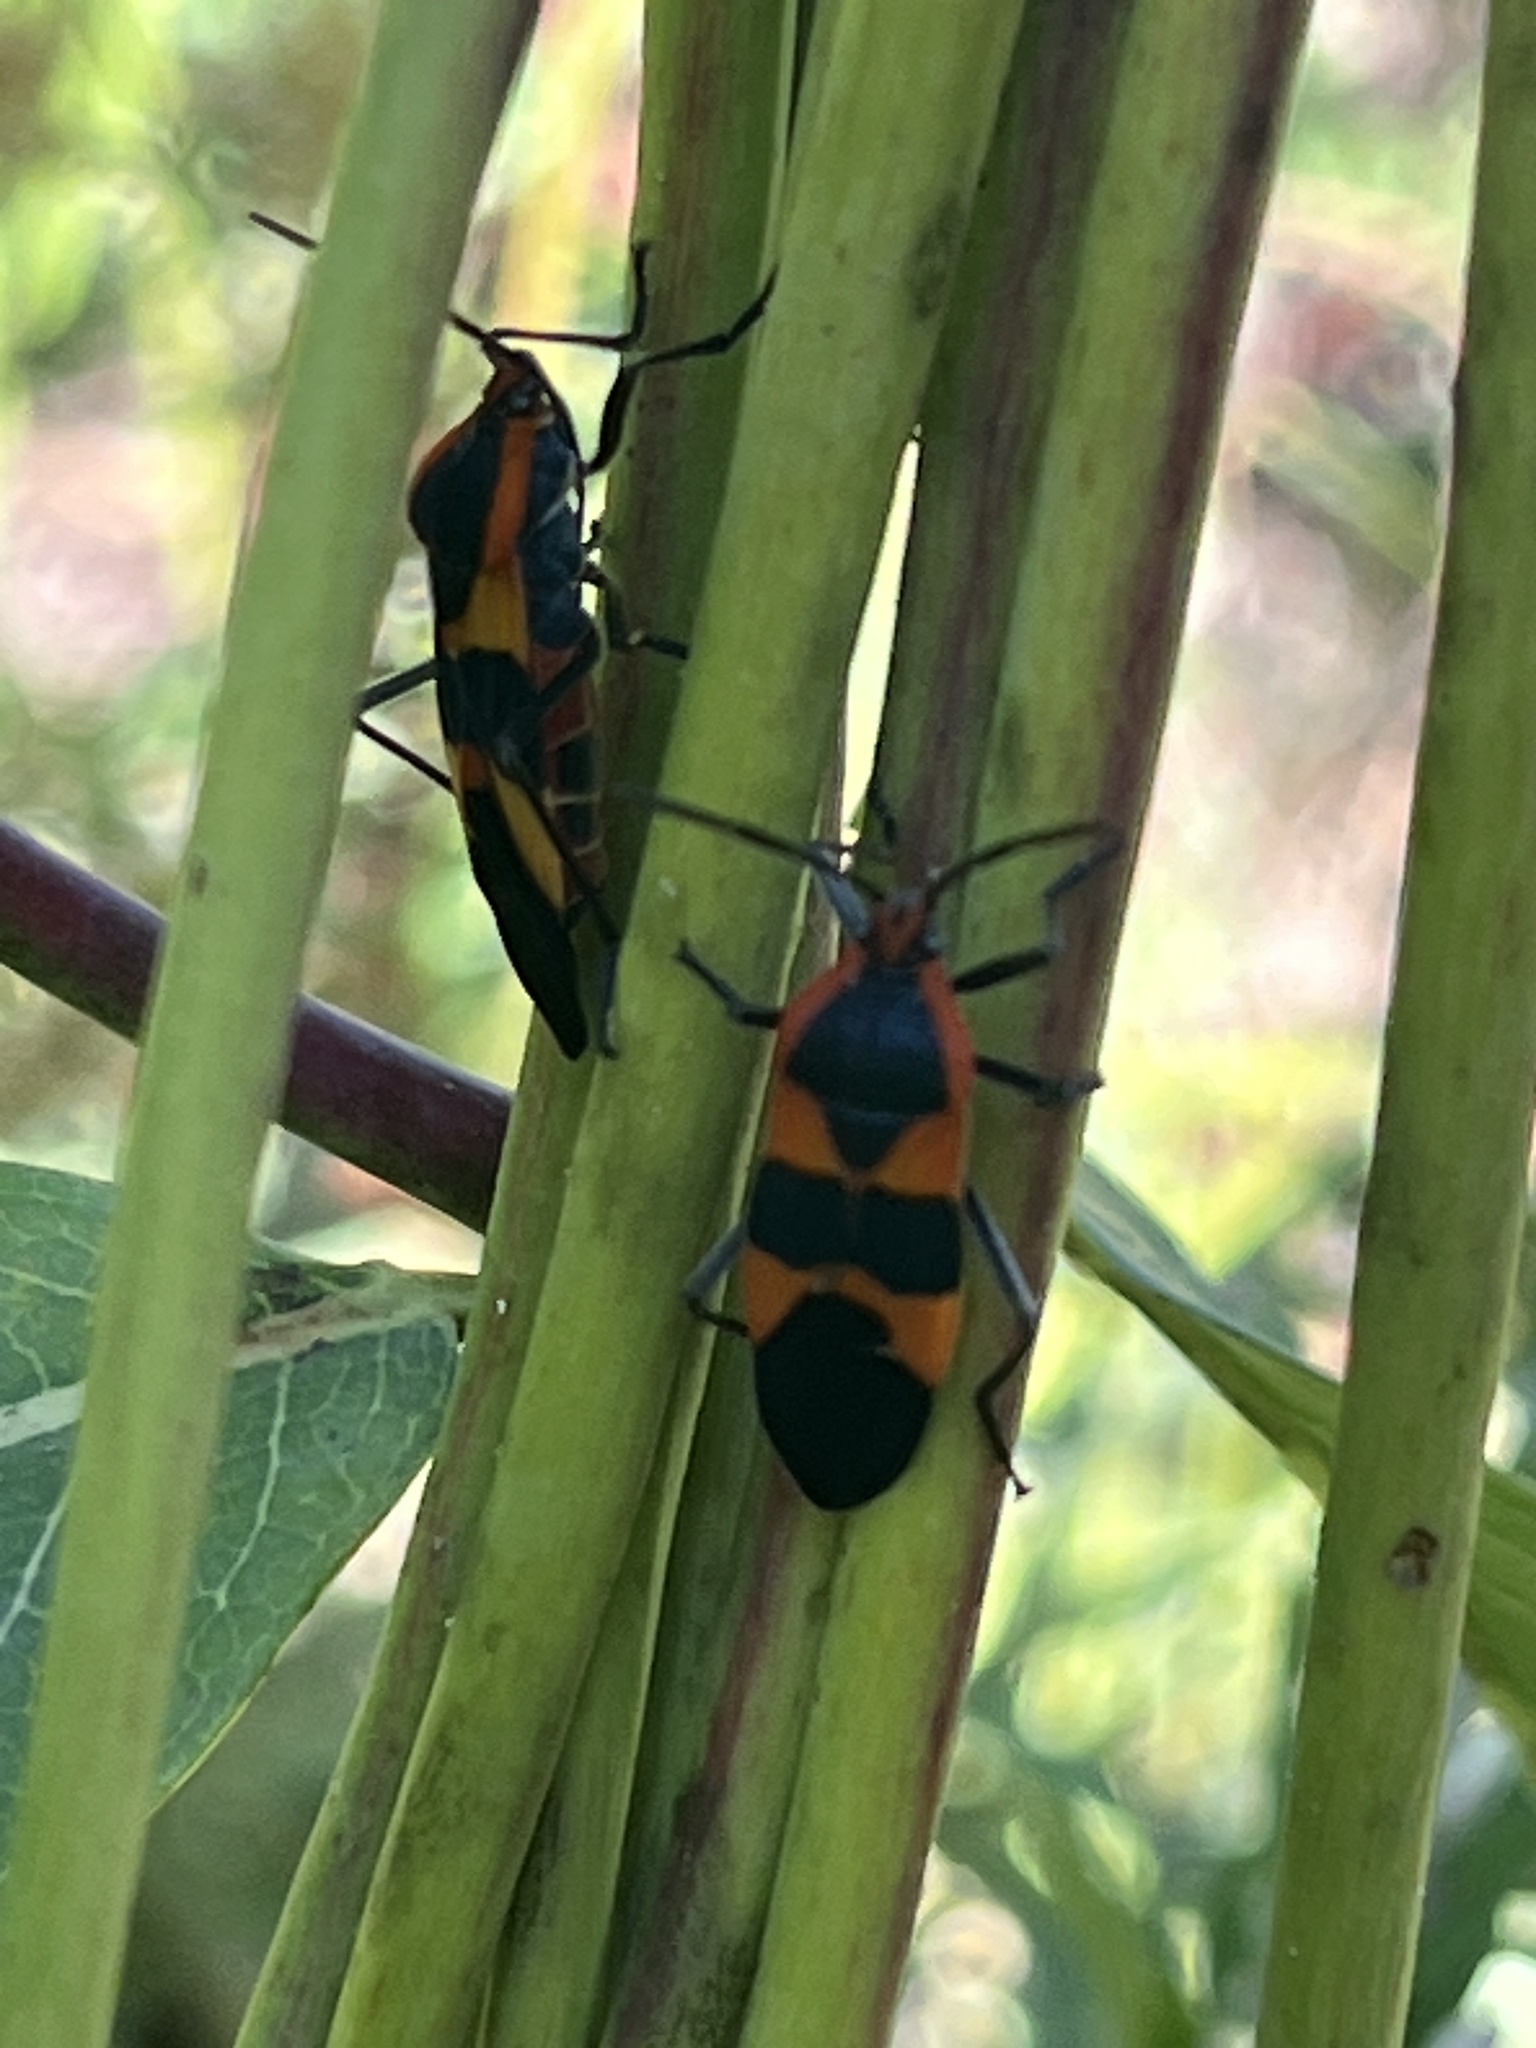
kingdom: Animalia
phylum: Arthropoda
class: Insecta
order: Hemiptera
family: Lygaeidae
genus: Oncopeltus
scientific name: Oncopeltus fasciatus
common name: Large milkweed bug
